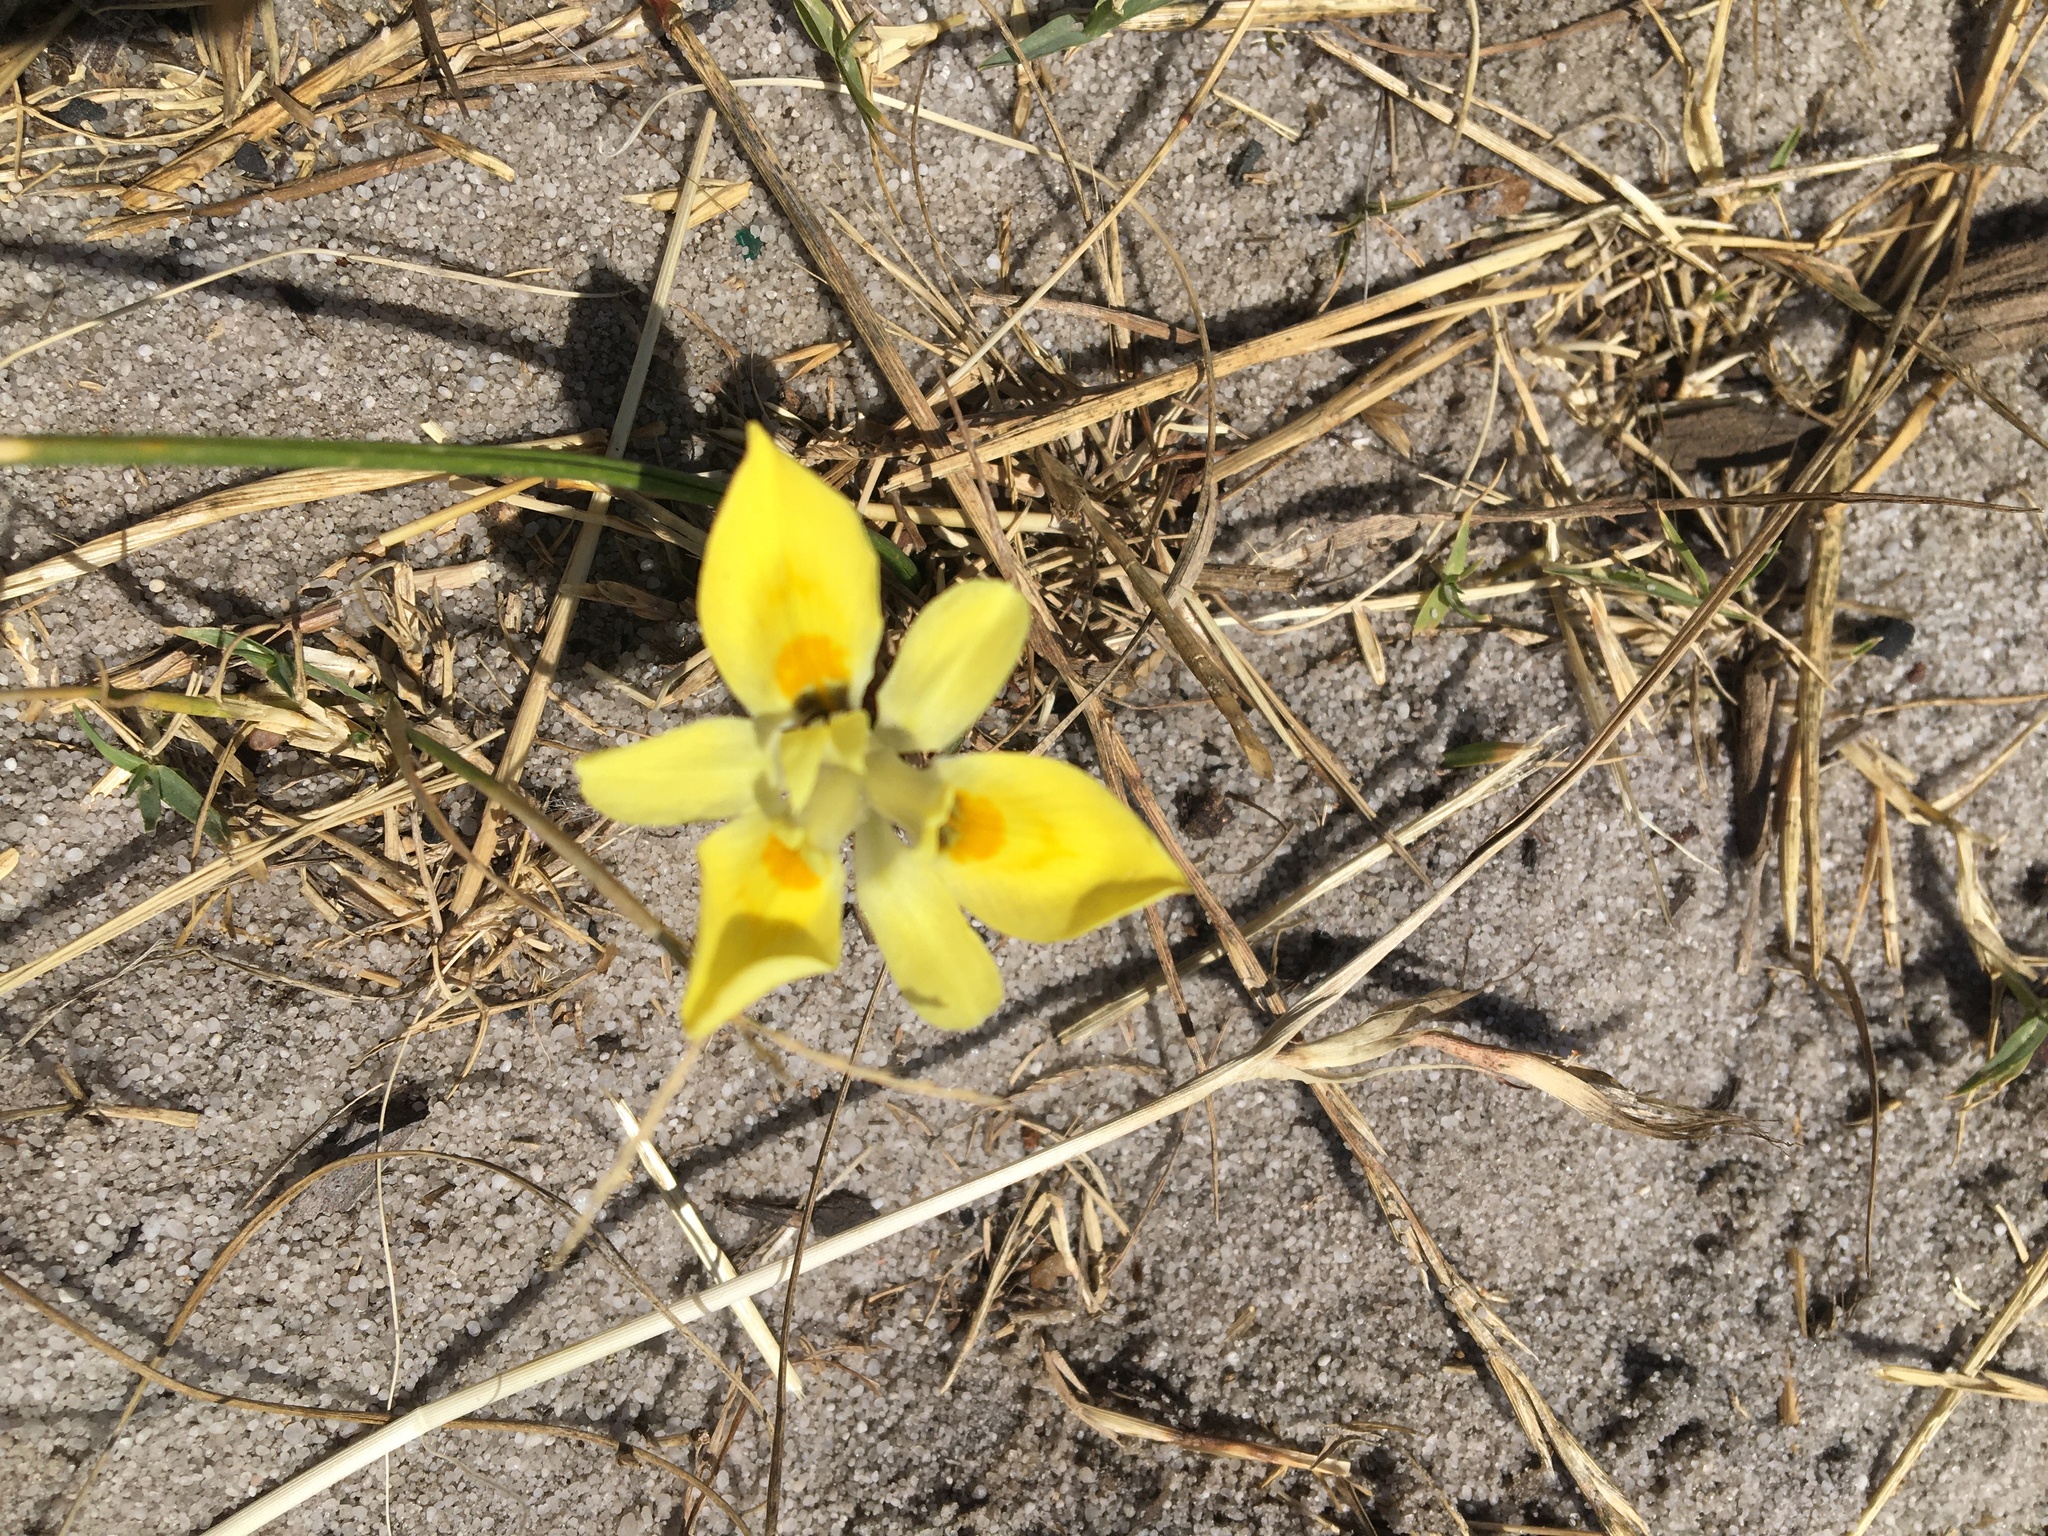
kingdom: Plantae
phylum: Tracheophyta
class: Liliopsida
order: Asparagales
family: Iridaceae
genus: Moraea
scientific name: Moraea fugax
